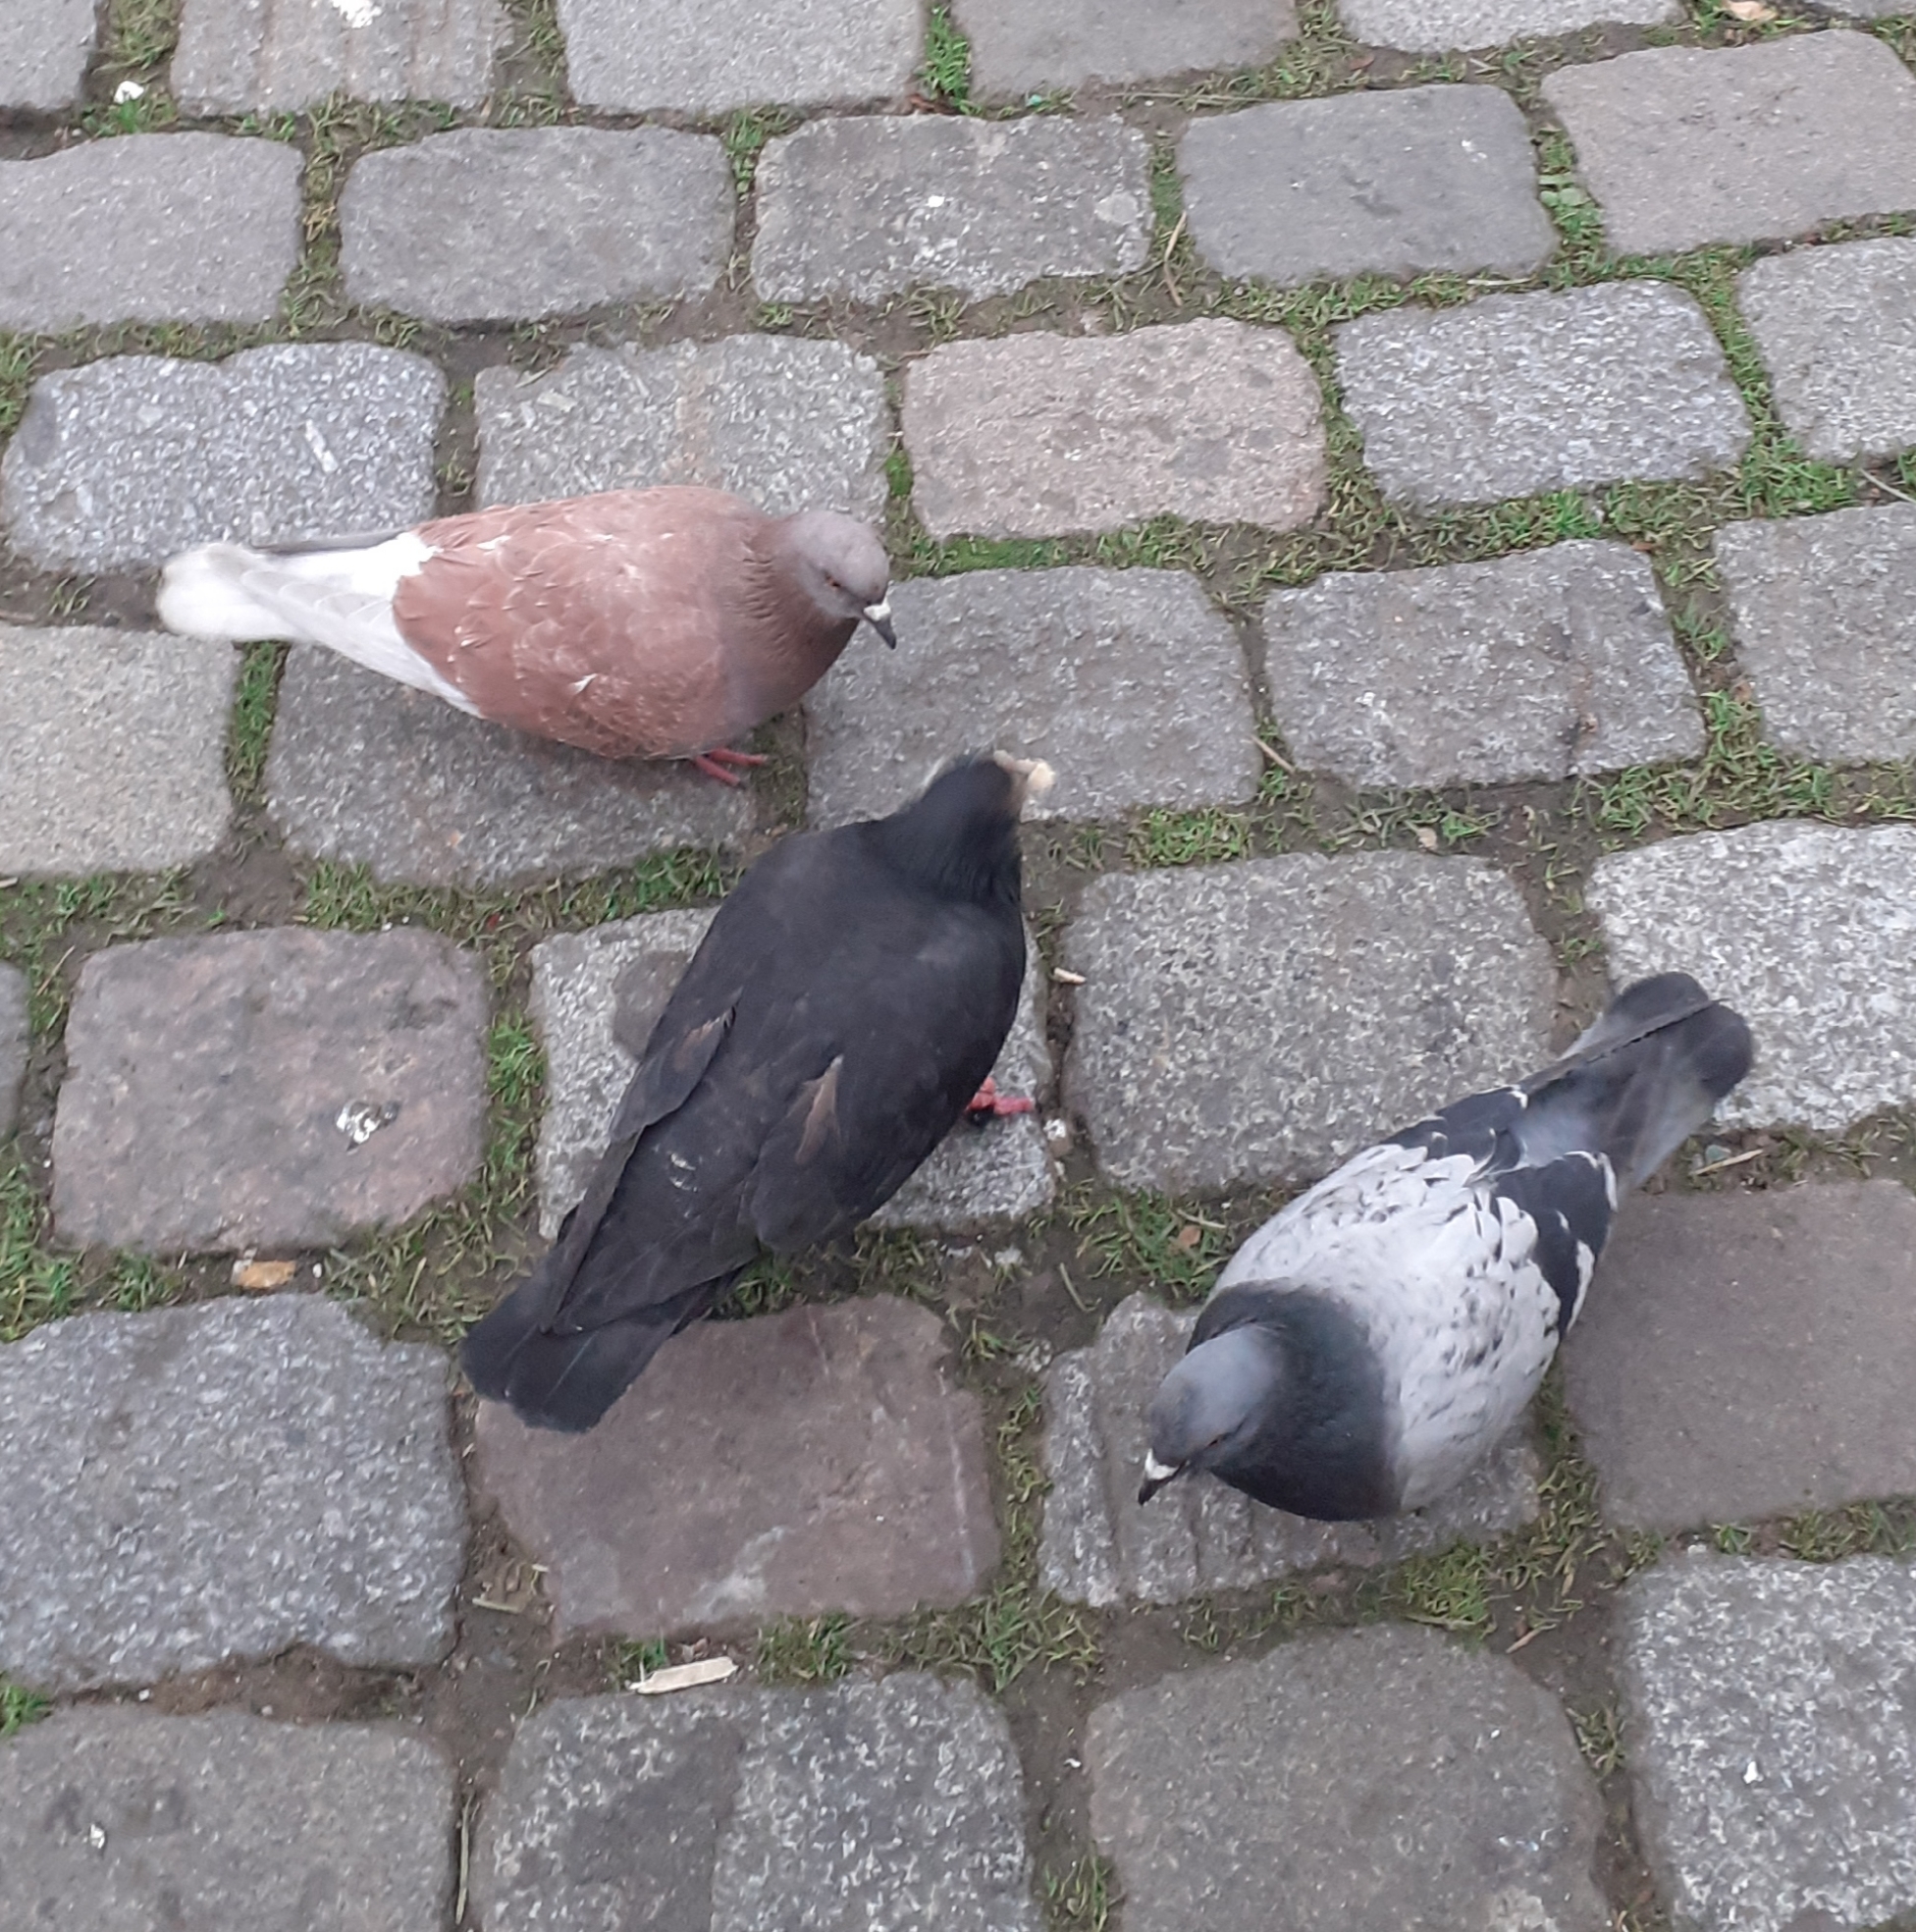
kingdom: Animalia
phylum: Chordata
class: Aves
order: Columbiformes
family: Columbidae
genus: Columba
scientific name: Columba livia
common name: Rock pigeon
